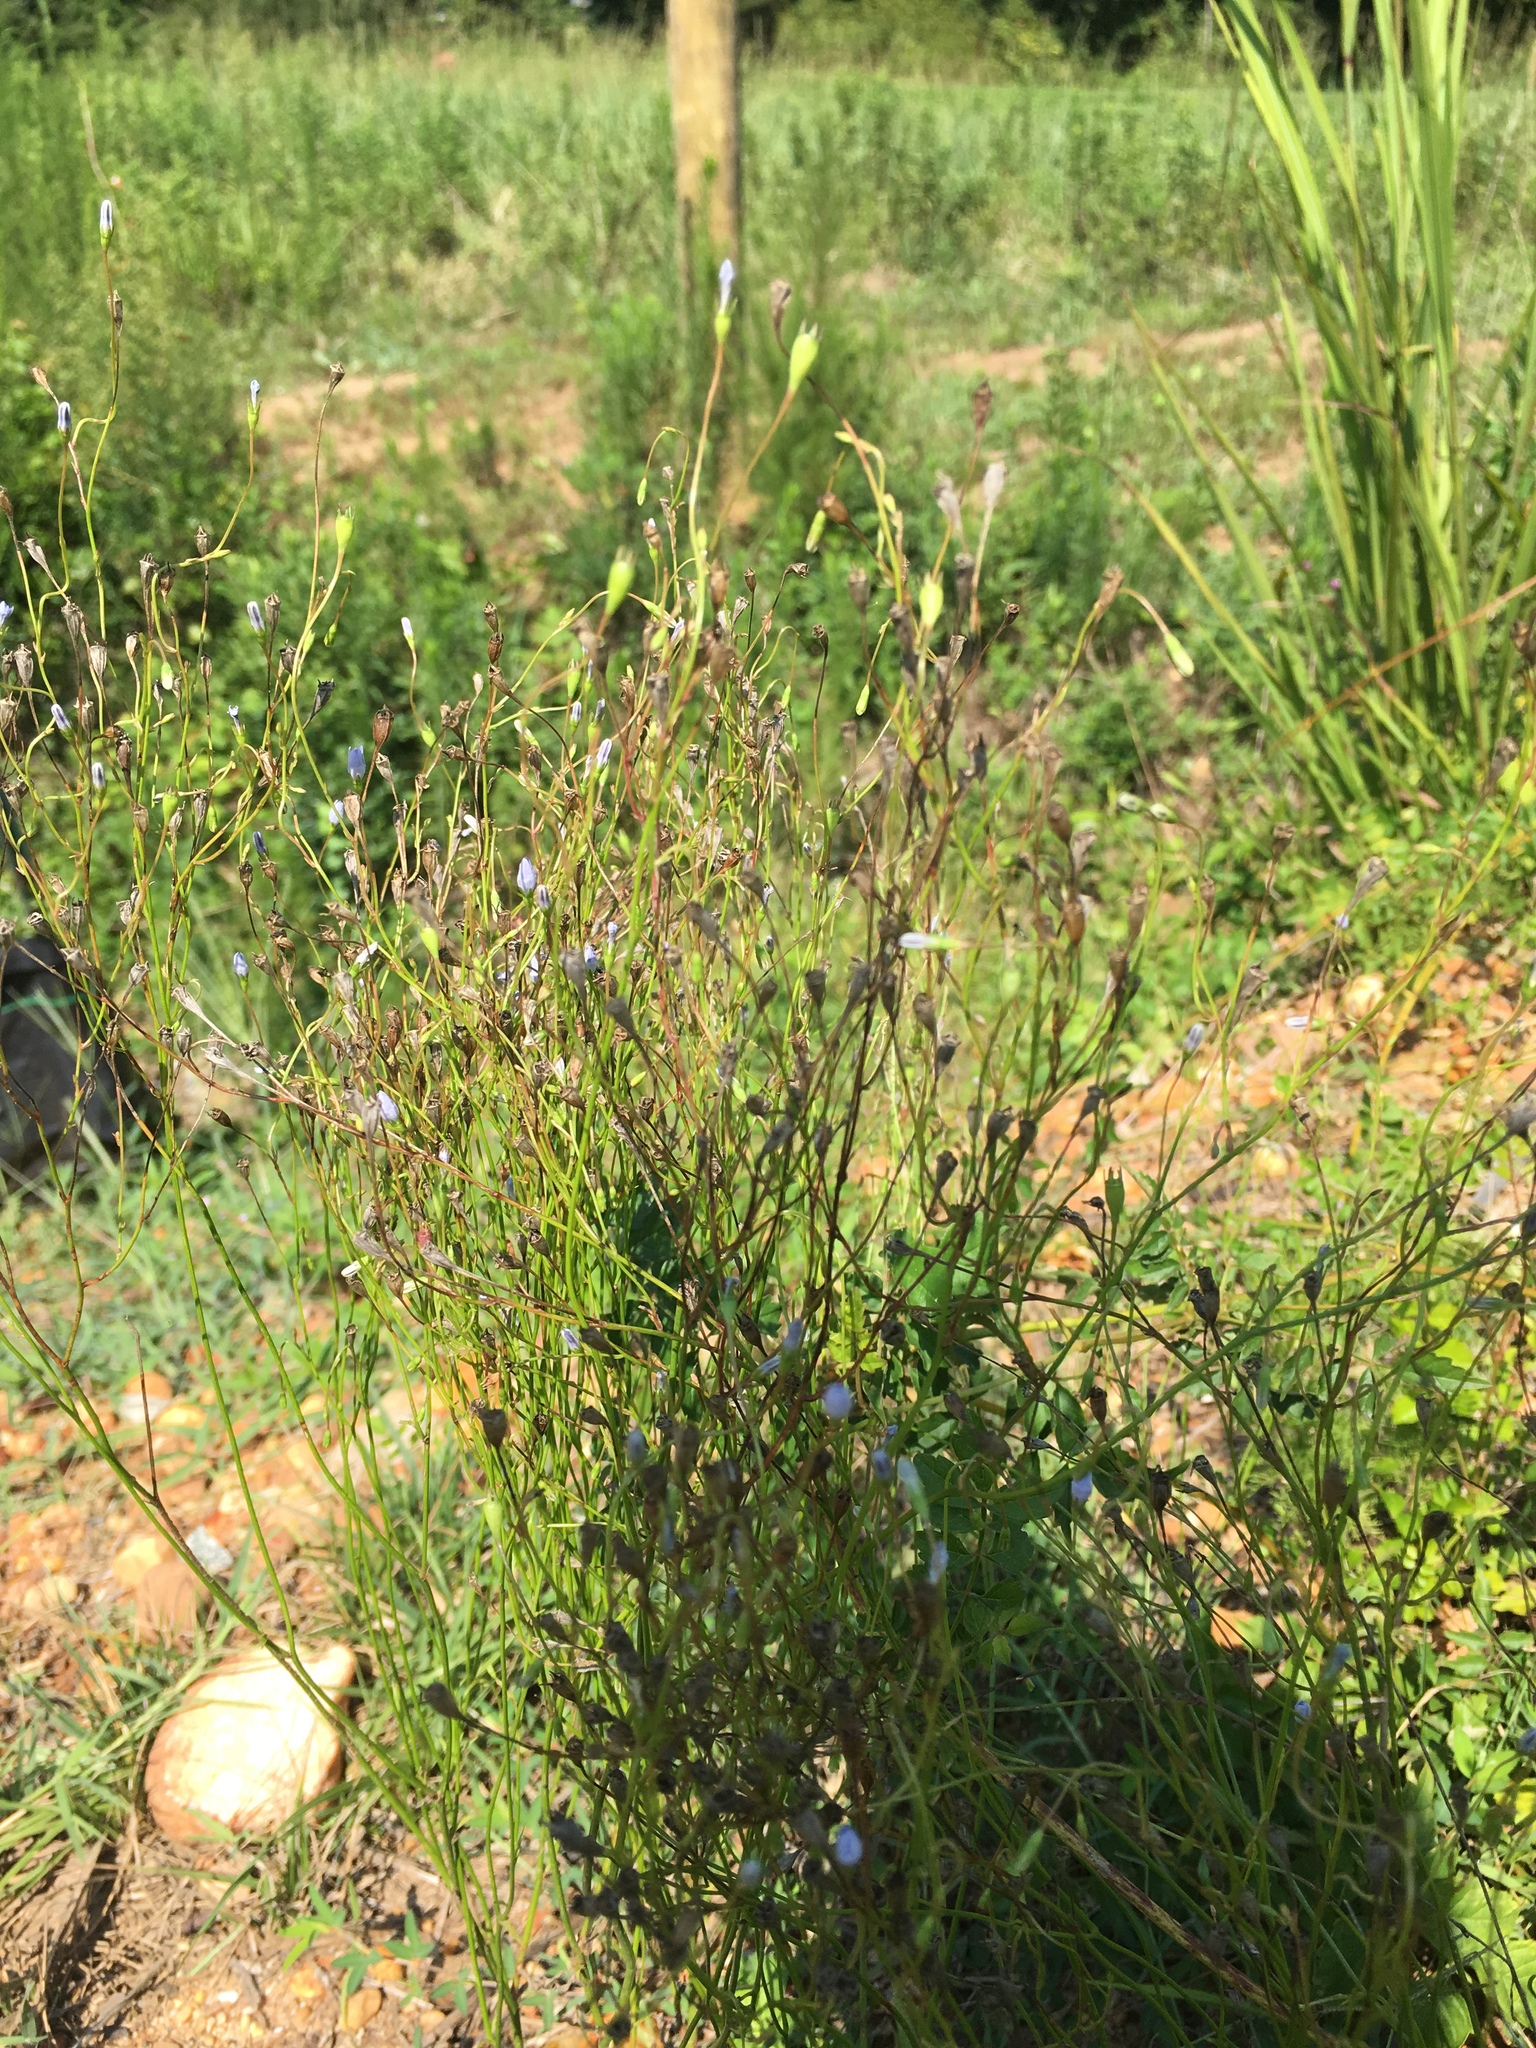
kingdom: Plantae
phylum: Tracheophyta
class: Magnoliopsida
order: Asterales
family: Campanulaceae
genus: Wahlenbergia
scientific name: Wahlenbergia marginata
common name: Southern rockbell
